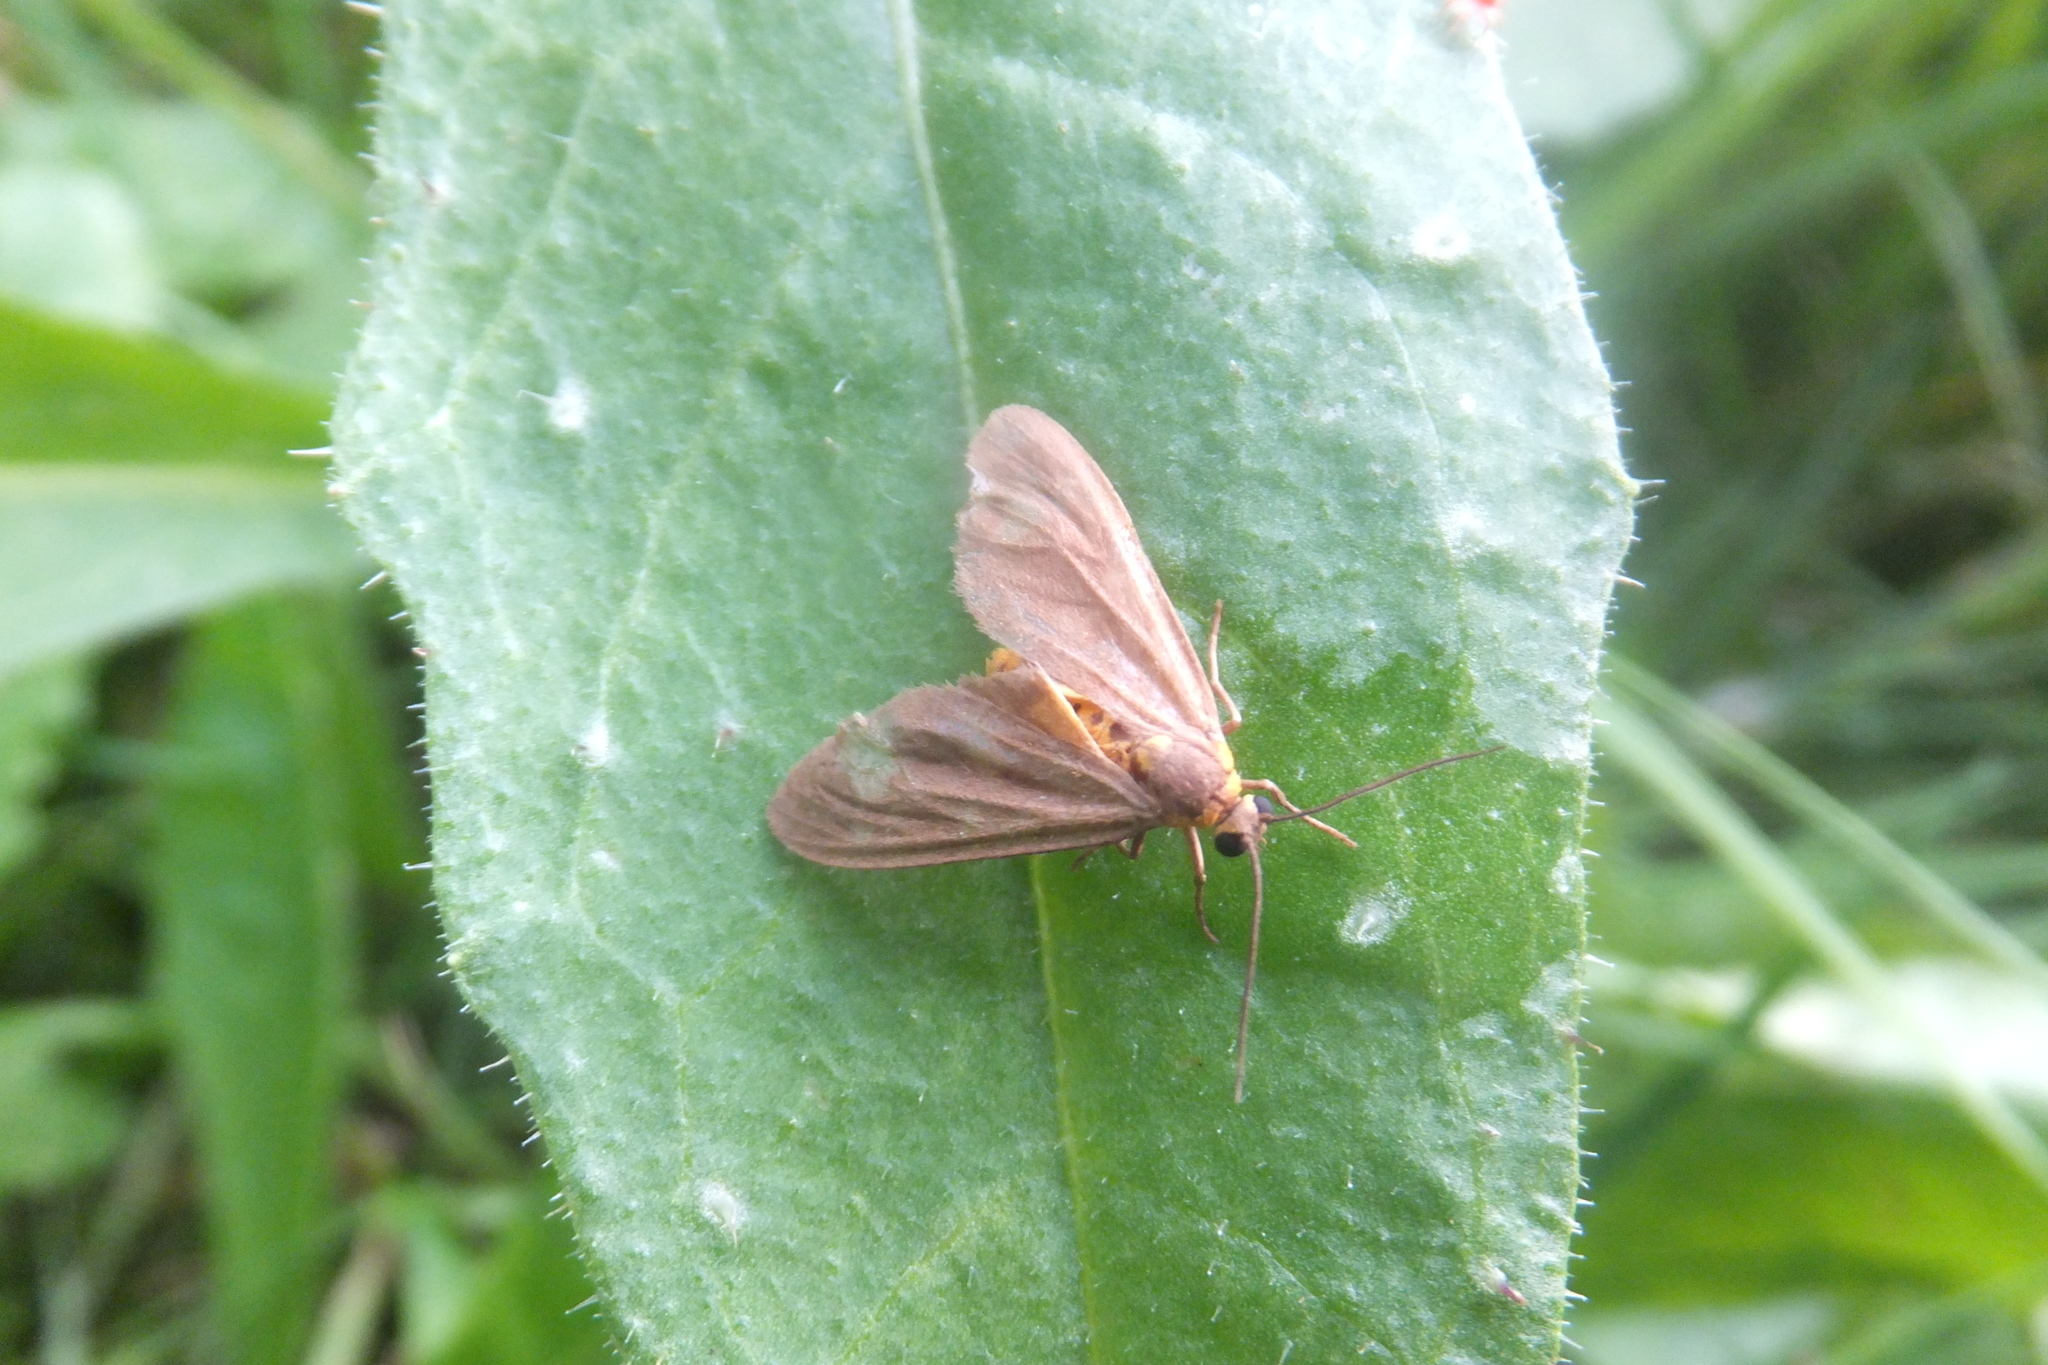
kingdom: Animalia
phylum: Arthropoda
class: Insecta
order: Lepidoptera
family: Erebidae
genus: Dysauxes
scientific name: Dysauxes punctata
